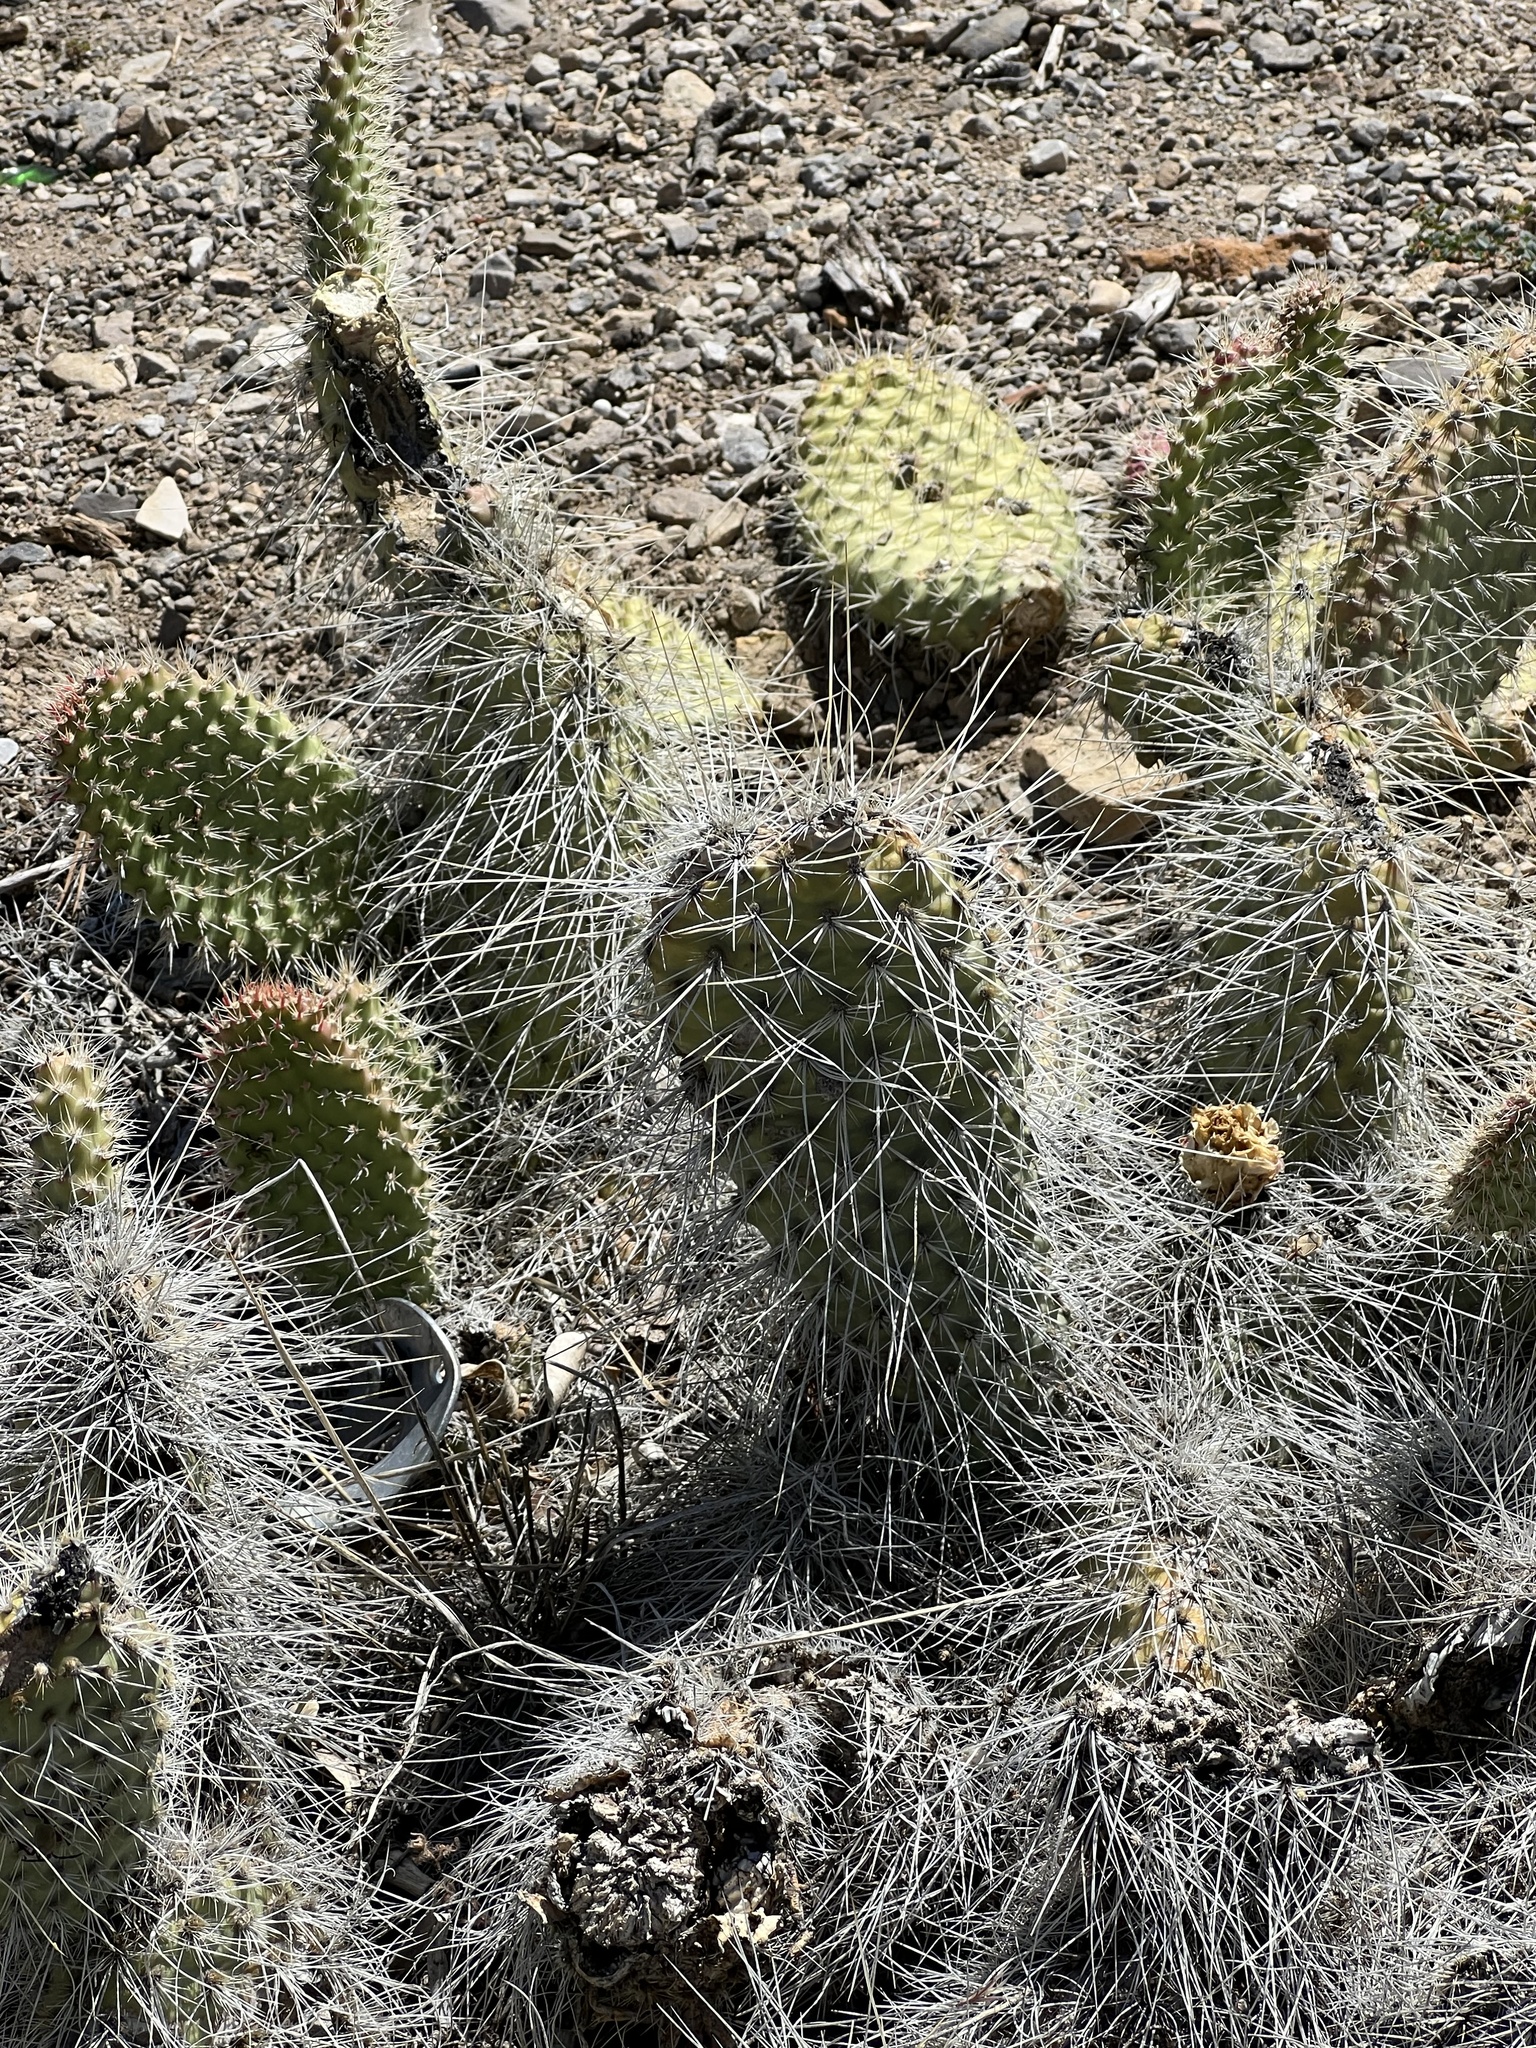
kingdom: Plantae
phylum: Tracheophyta
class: Magnoliopsida
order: Caryophyllales
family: Cactaceae
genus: Opuntia
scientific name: Opuntia polyacantha
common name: Plains prickly-pear
